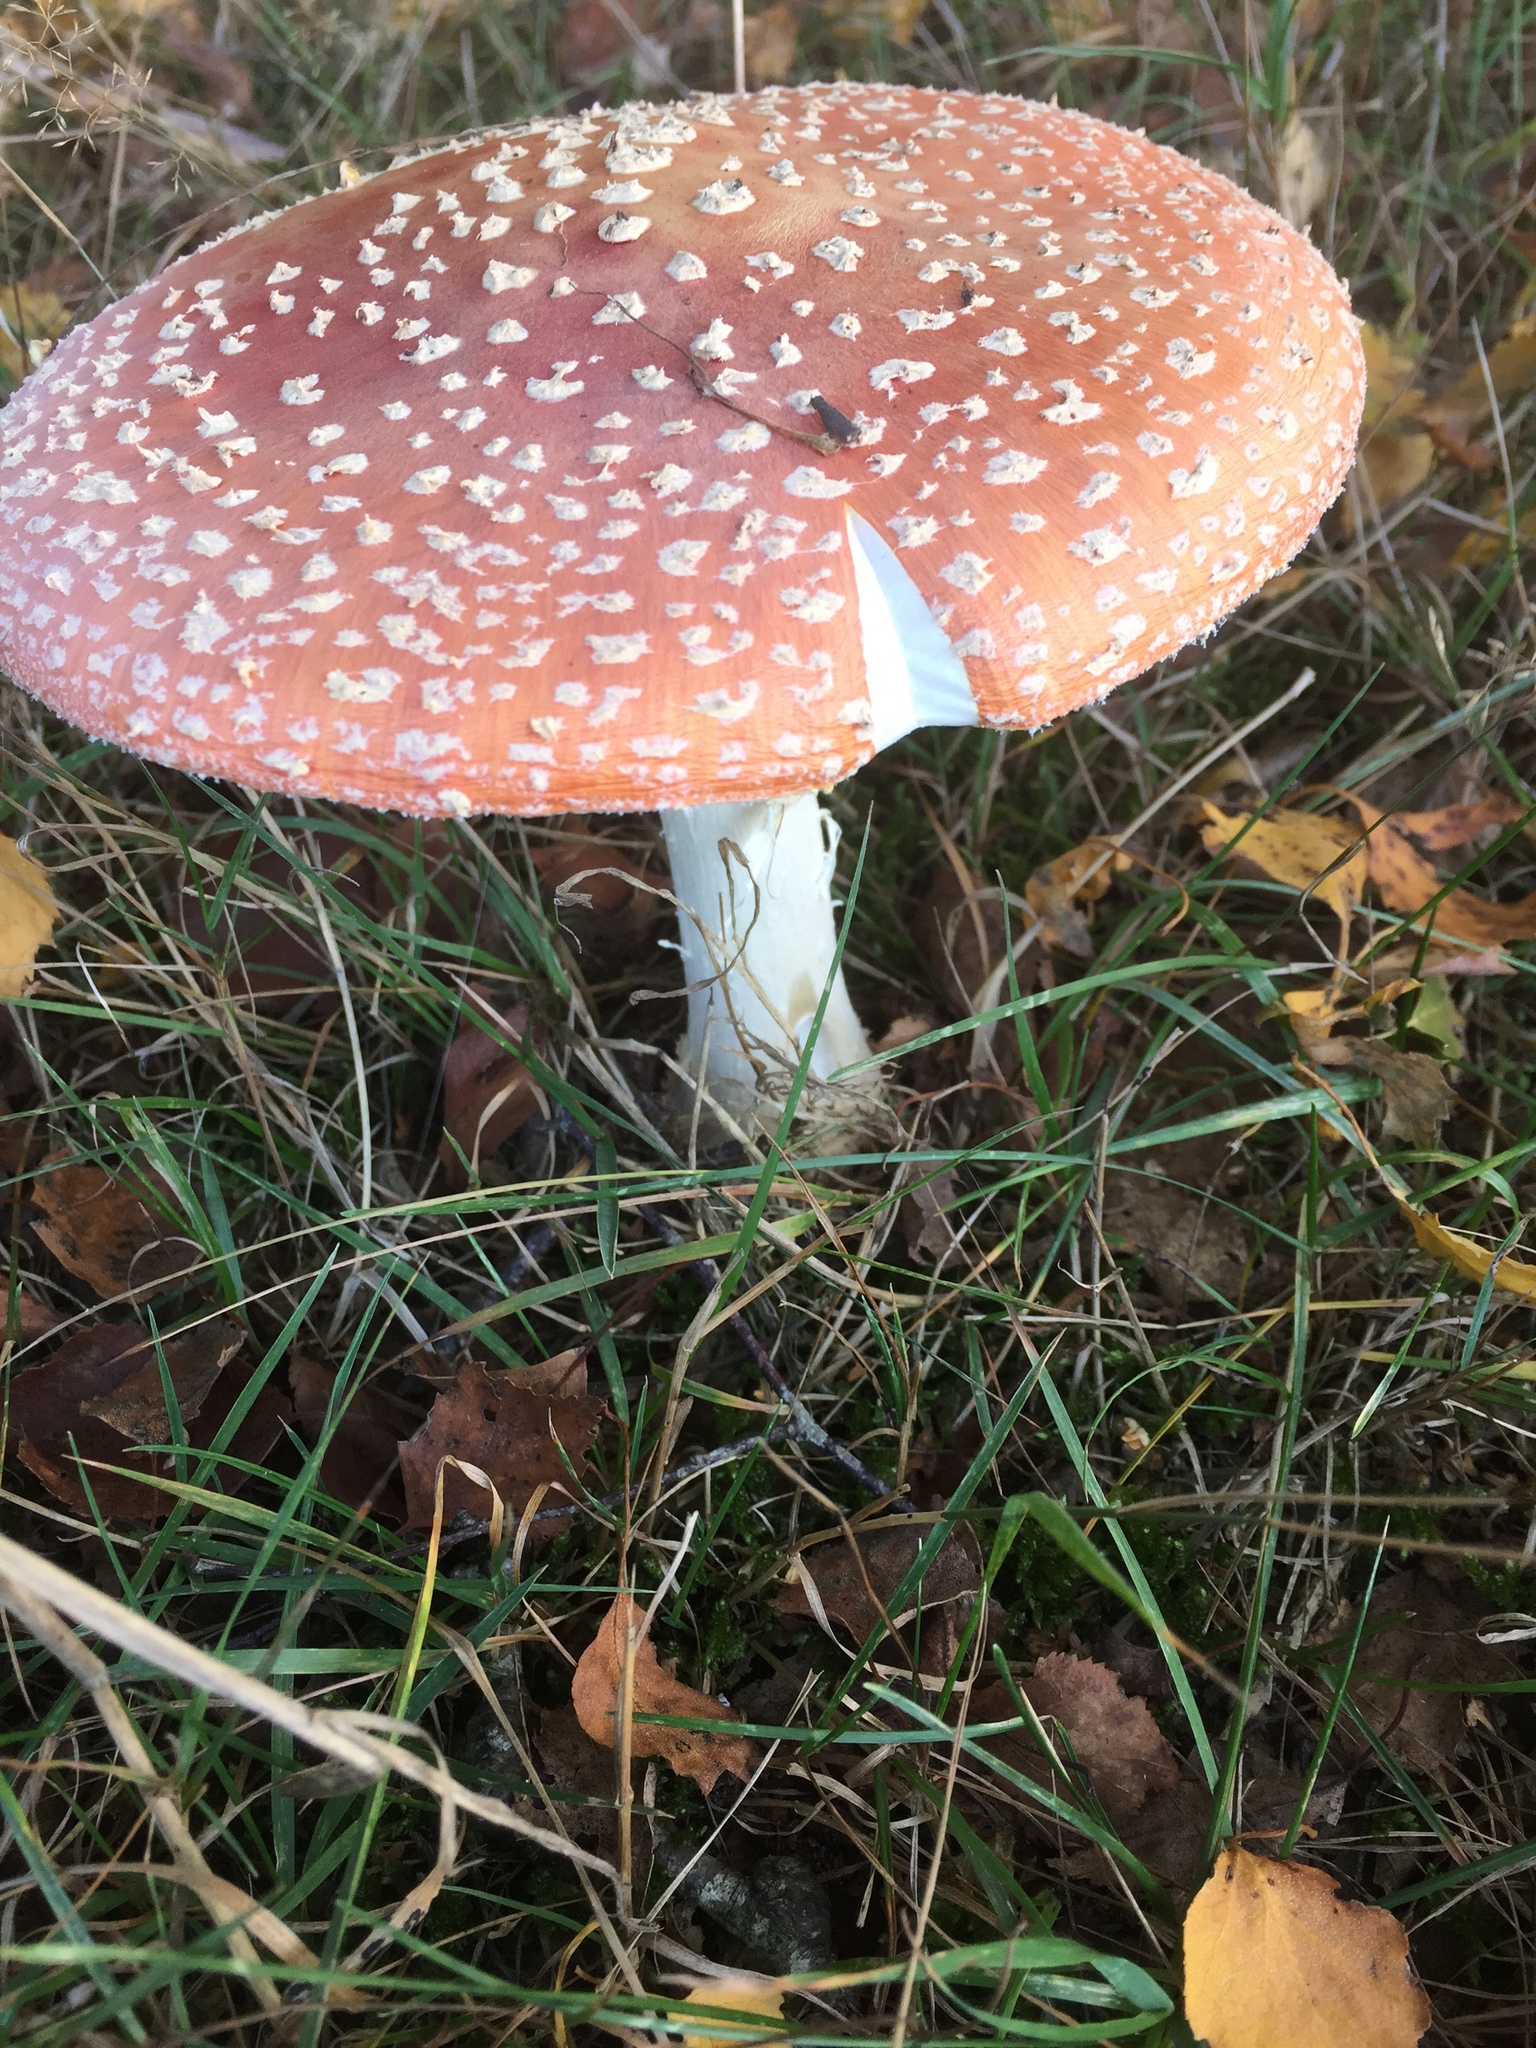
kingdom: Fungi
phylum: Basidiomycota
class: Agaricomycetes
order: Agaricales
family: Amanitaceae
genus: Amanita
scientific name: Amanita muscaria
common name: Fly agaric
